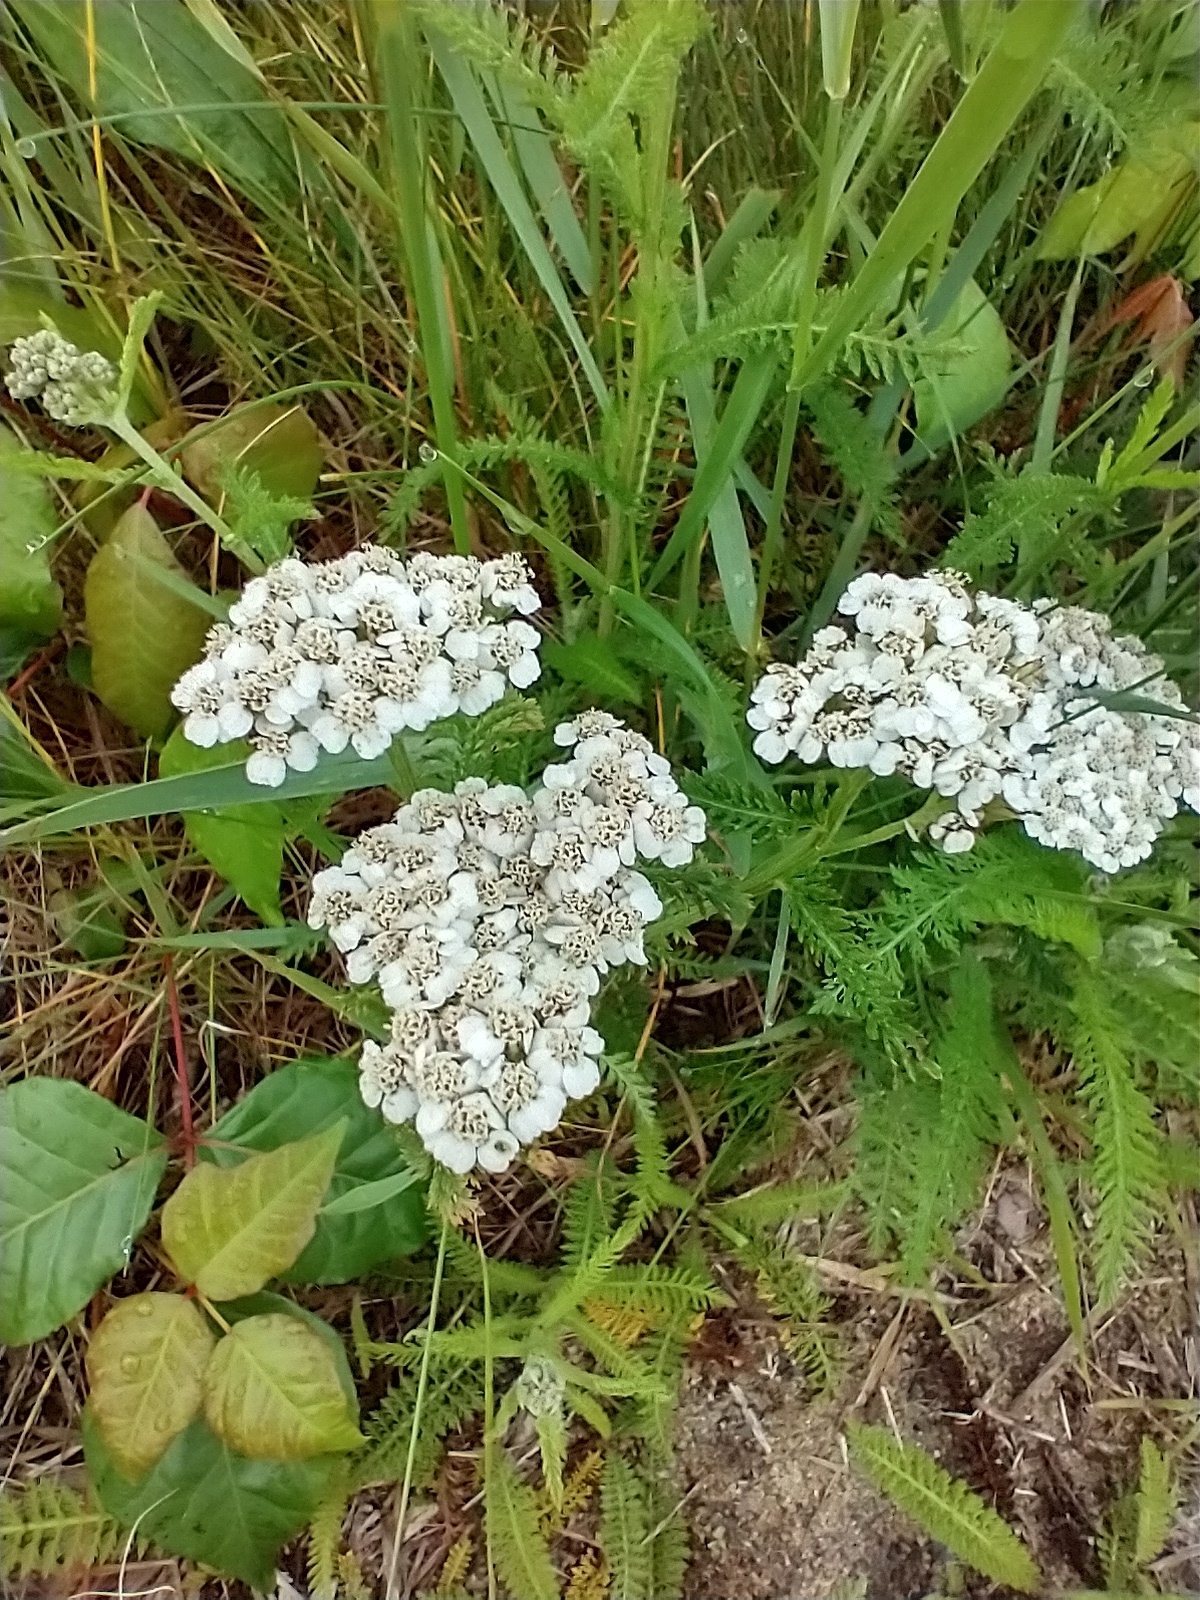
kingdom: Plantae
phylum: Tracheophyta
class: Magnoliopsida
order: Asterales
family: Asteraceae
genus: Achillea
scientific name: Achillea millefolium
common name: Yarrow
